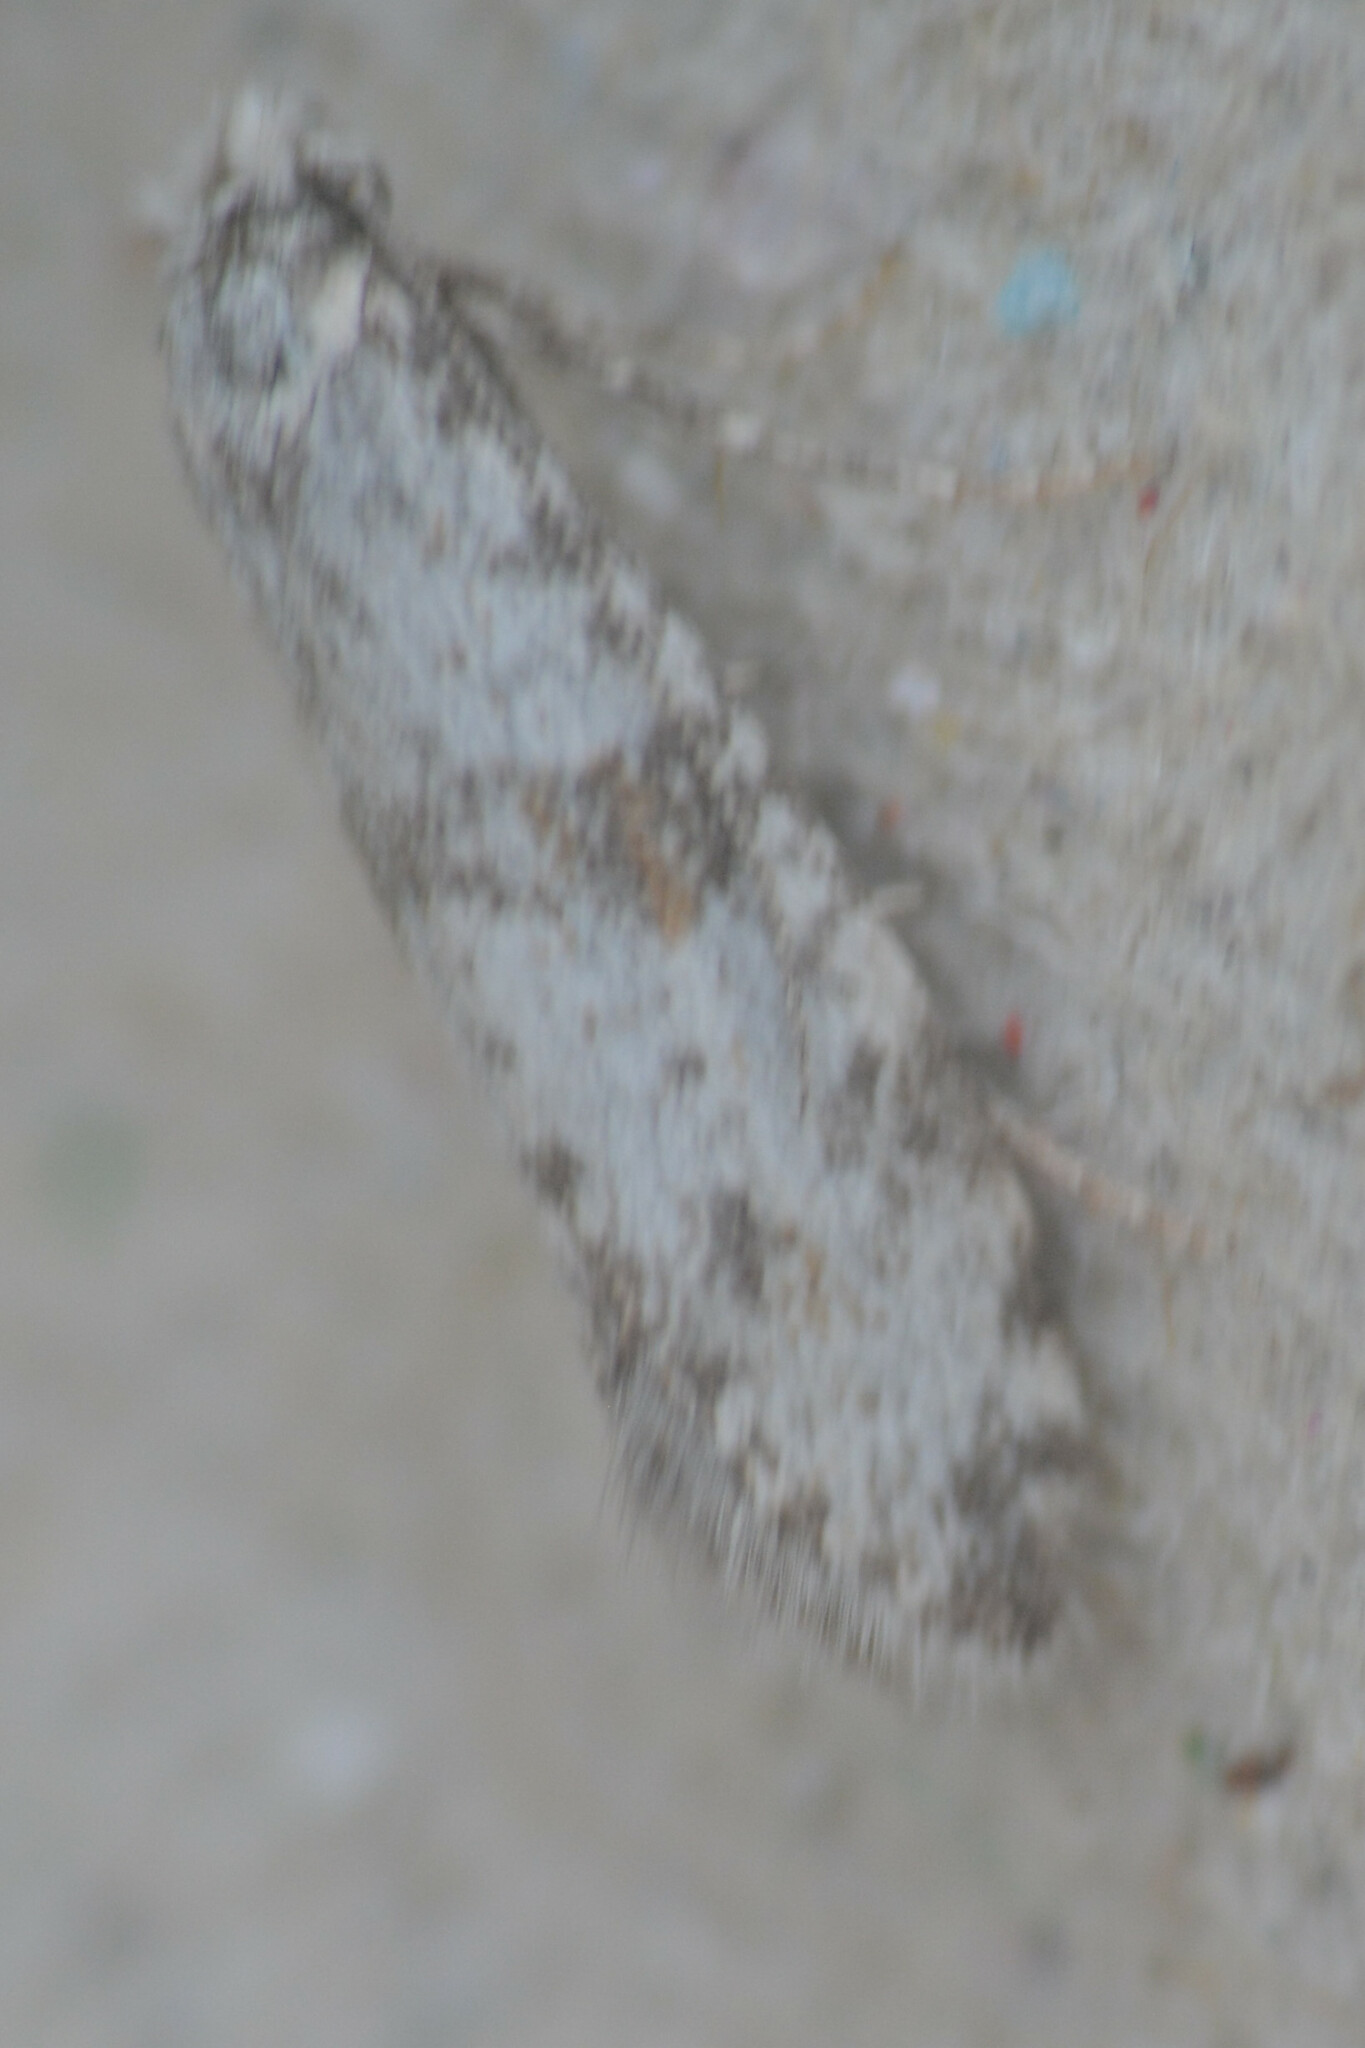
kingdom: Animalia
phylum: Arthropoda
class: Insecta
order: Lepidoptera
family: Yponomeutidae
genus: Scythropia
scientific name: Scythropia crataegella
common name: Hawthorn moth
